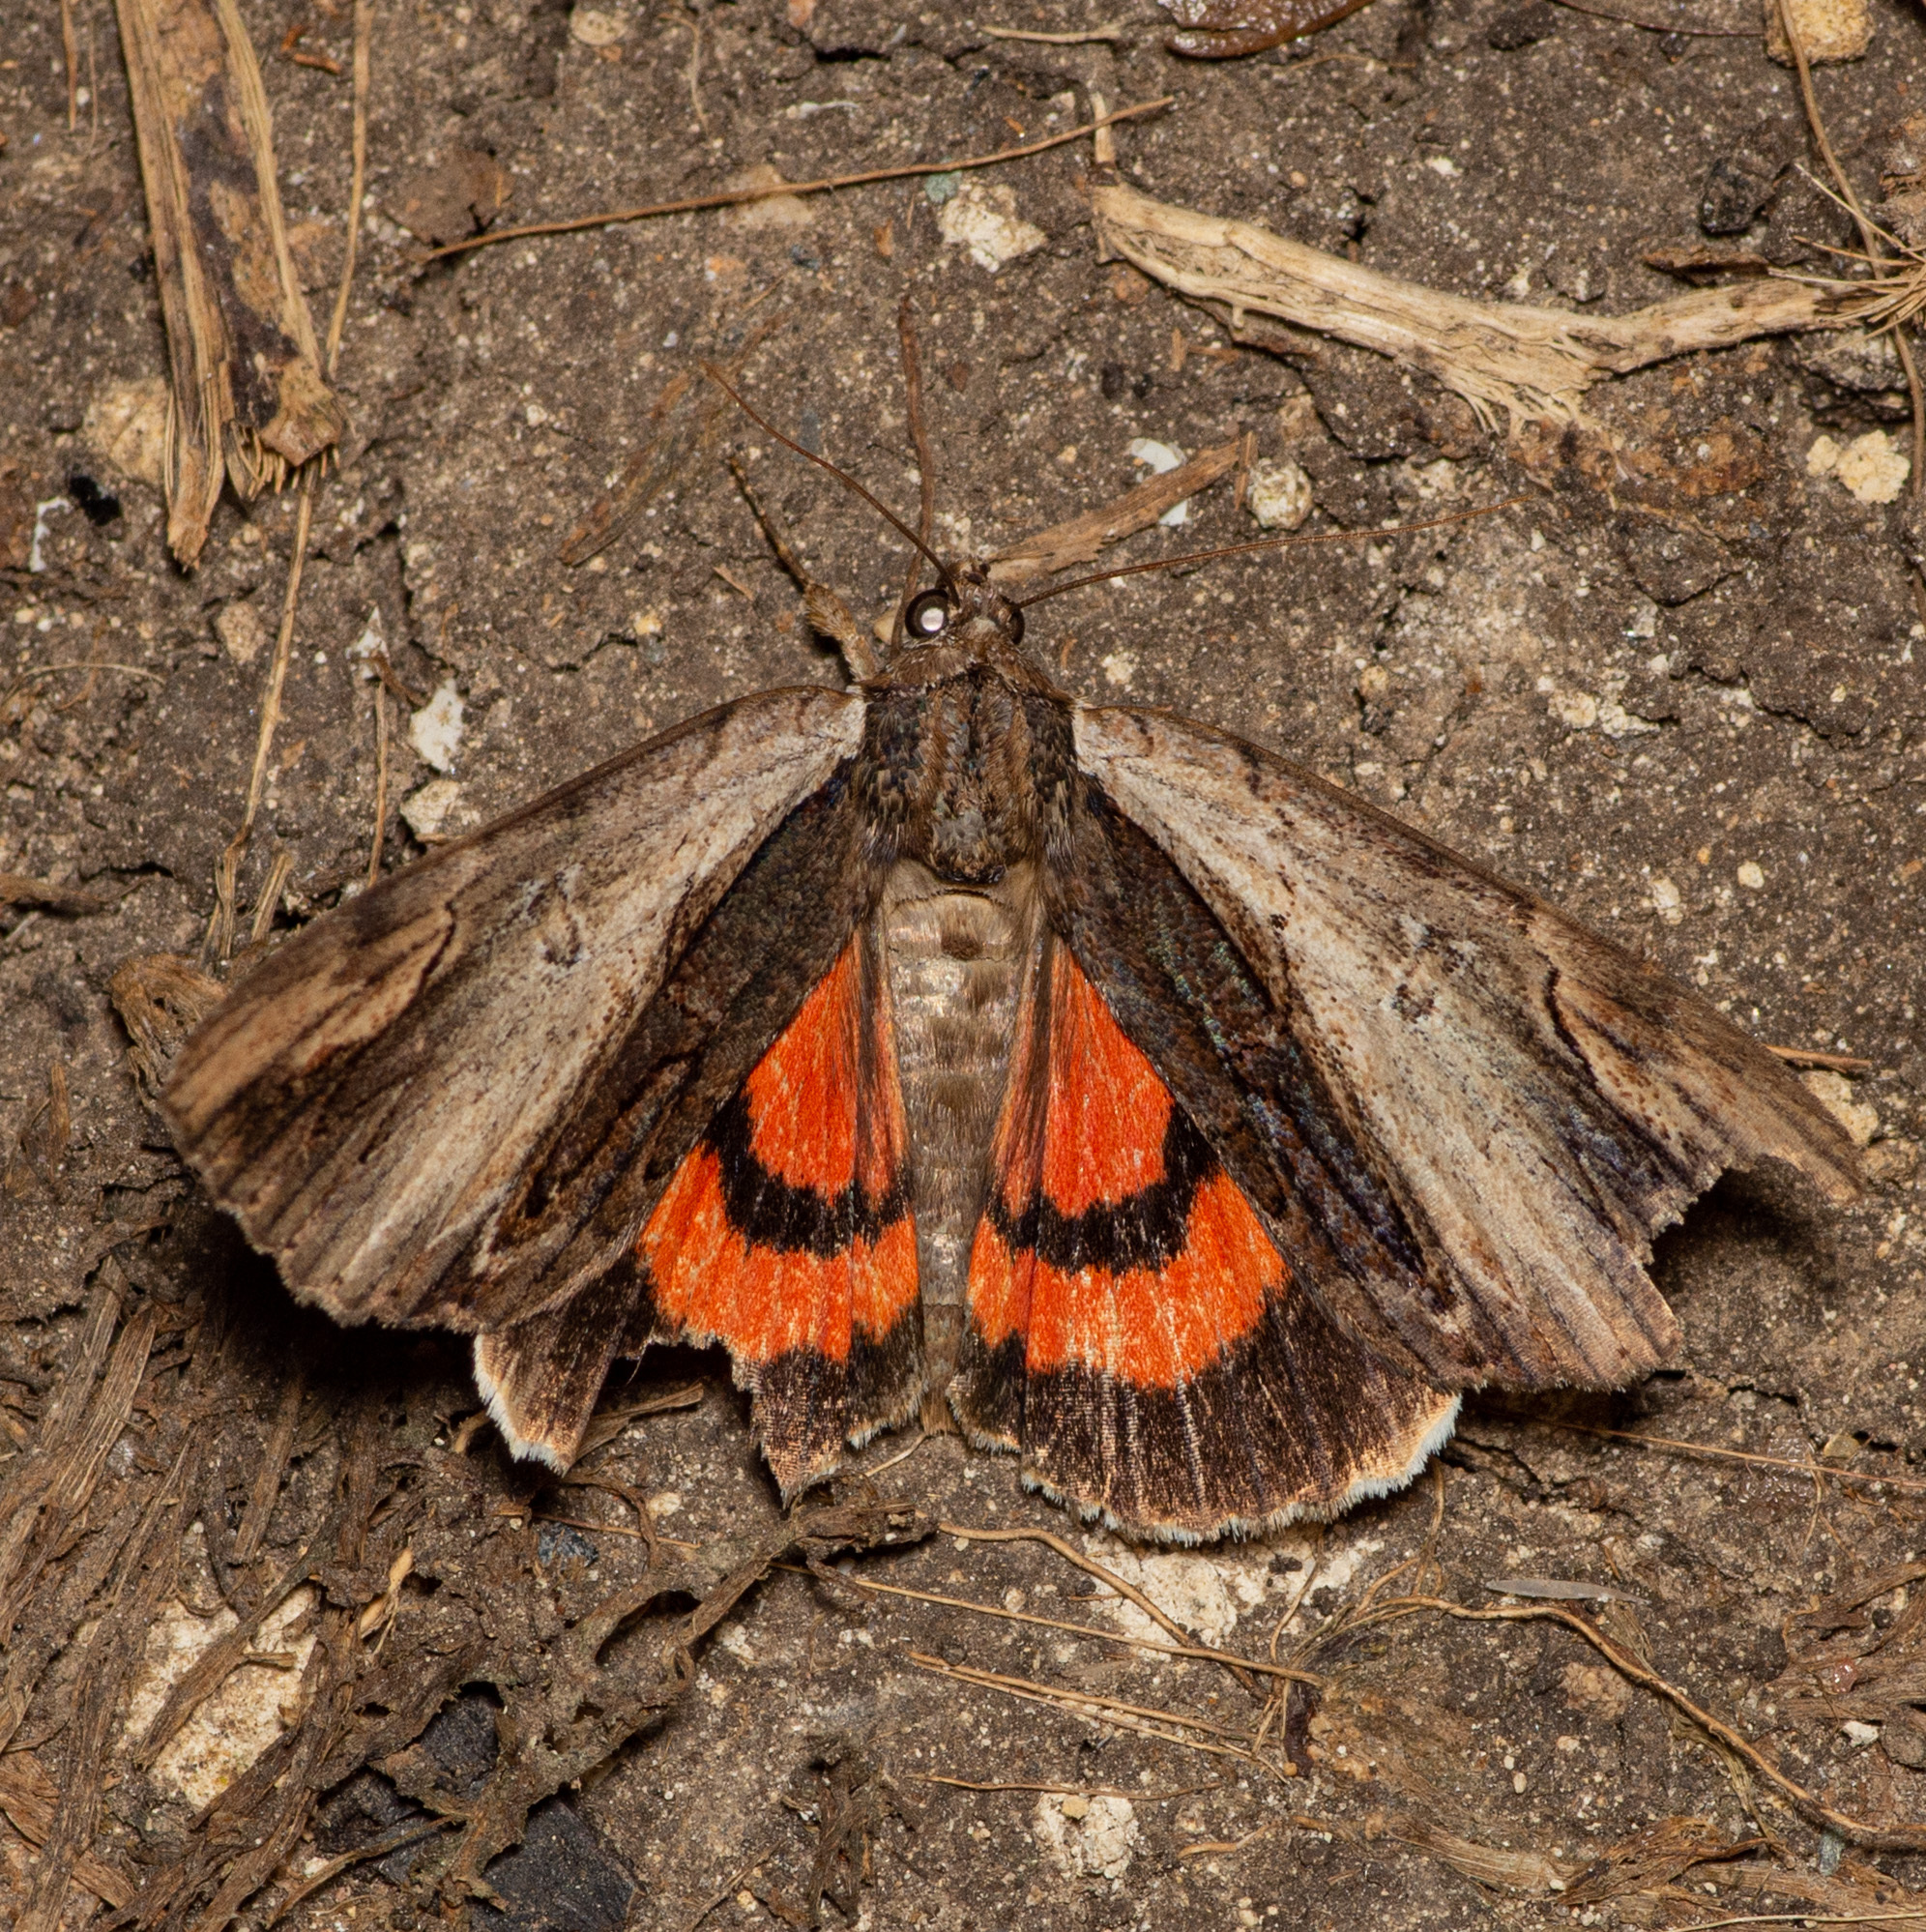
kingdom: Animalia
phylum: Arthropoda
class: Insecta
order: Lepidoptera
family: Erebidae
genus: Catocala
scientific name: Catocala ultronia
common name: Ultronia underwing
